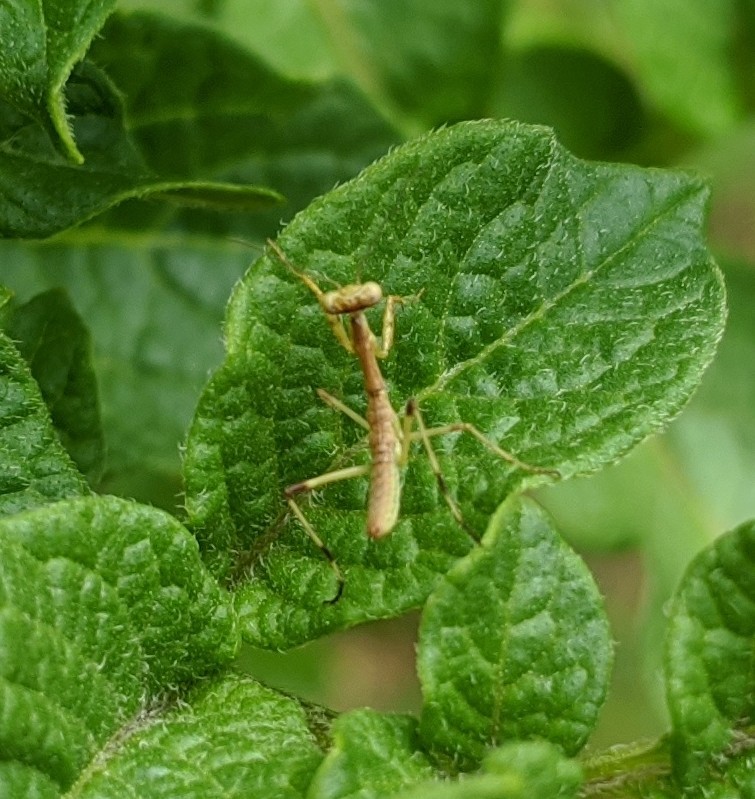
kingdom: Animalia
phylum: Arthropoda
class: Insecta
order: Mantodea
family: Mantidae
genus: Stagmomantis
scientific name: Stagmomantis carolina
